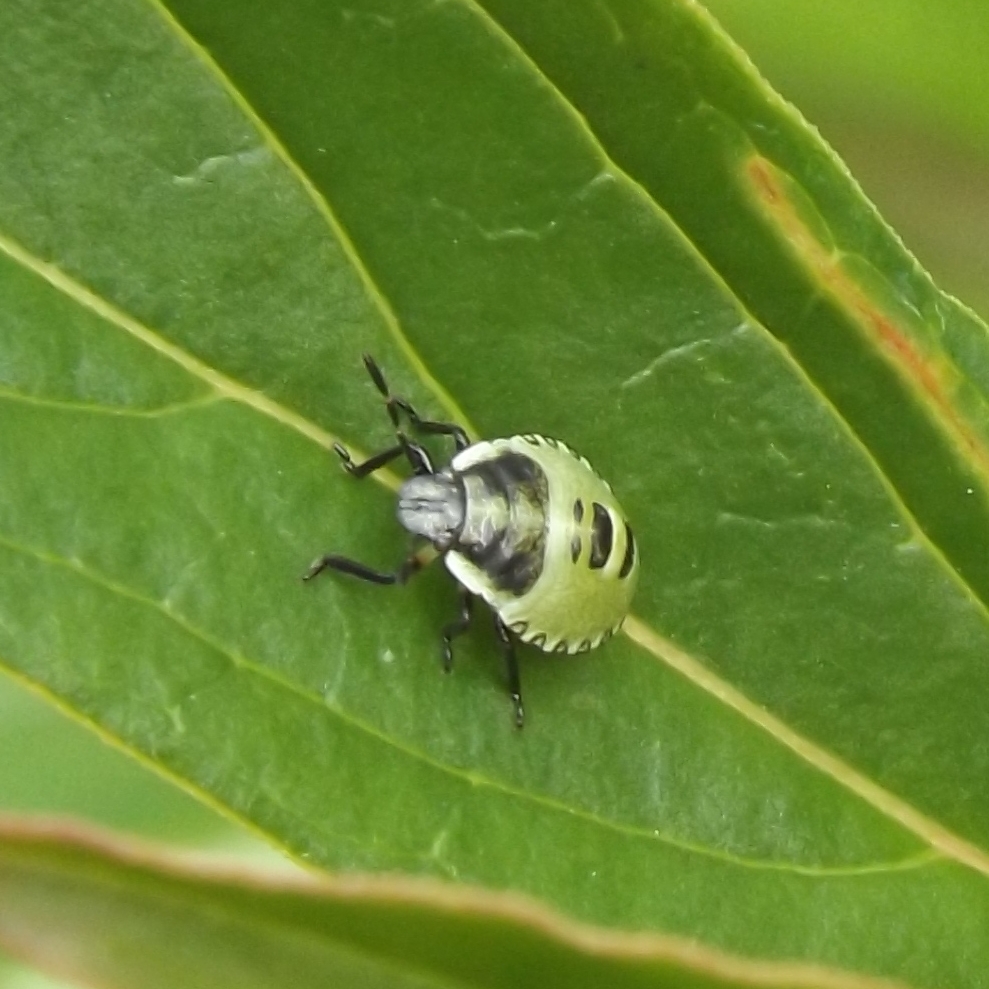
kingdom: Animalia
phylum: Arthropoda
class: Insecta
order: Hemiptera
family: Pentatomidae
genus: Palomena
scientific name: Palomena prasina
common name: Green shieldbug
